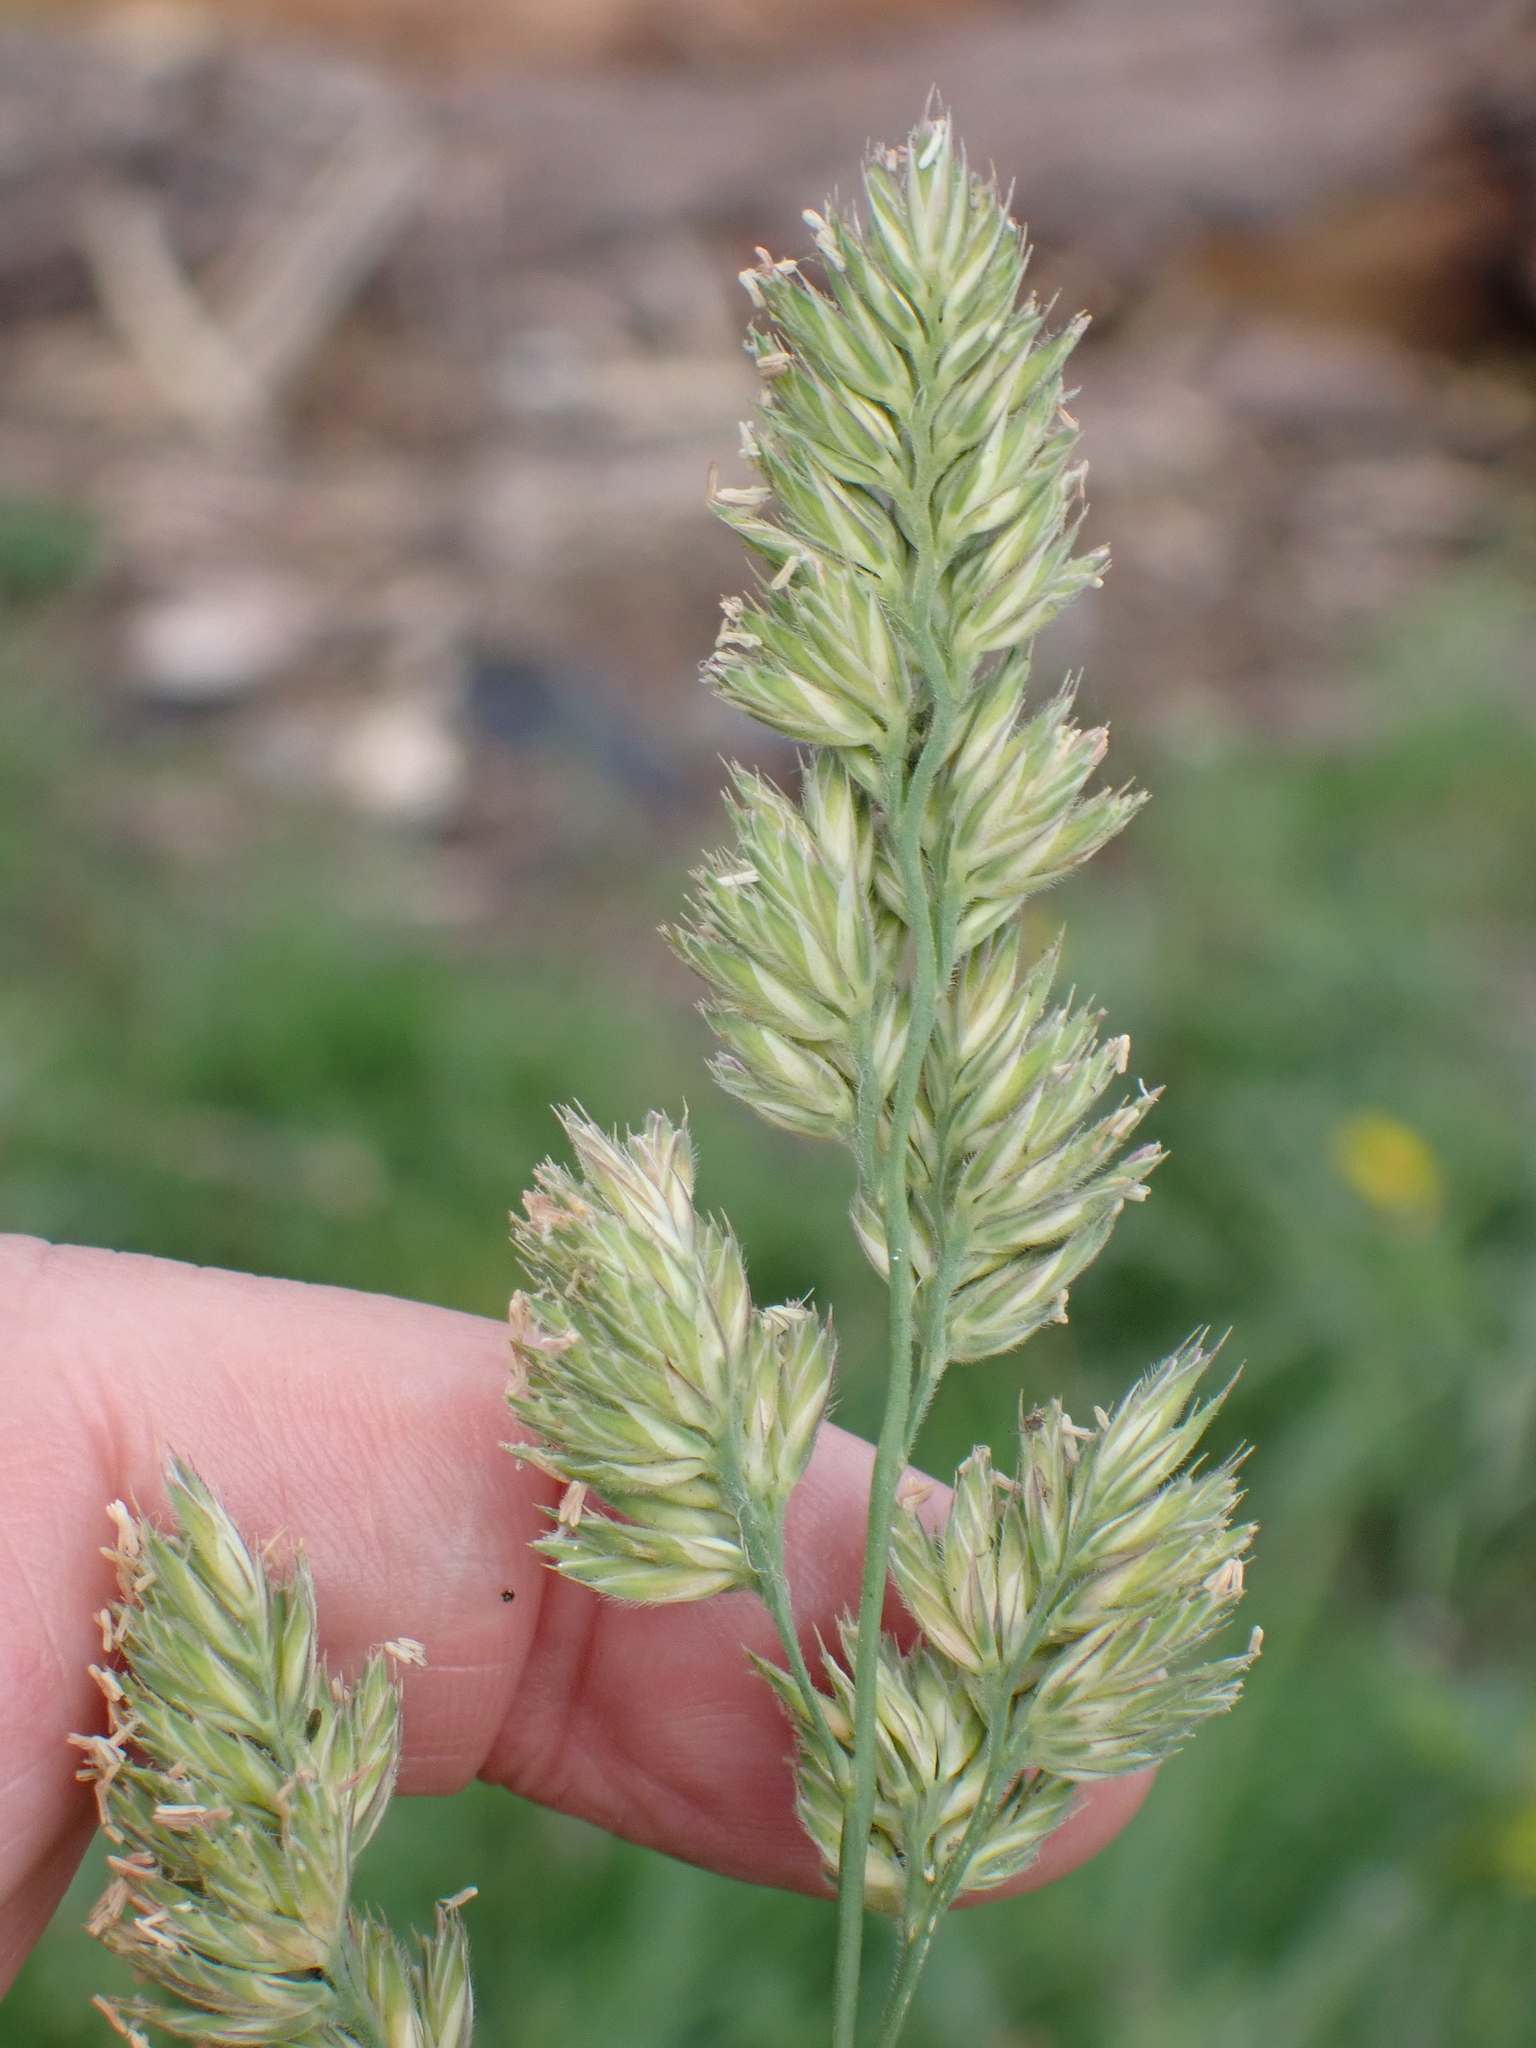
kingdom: Plantae
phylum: Tracheophyta
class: Liliopsida
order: Poales
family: Poaceae
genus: Dactylis
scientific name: Dactylis glomerata
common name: Orchardgrass
